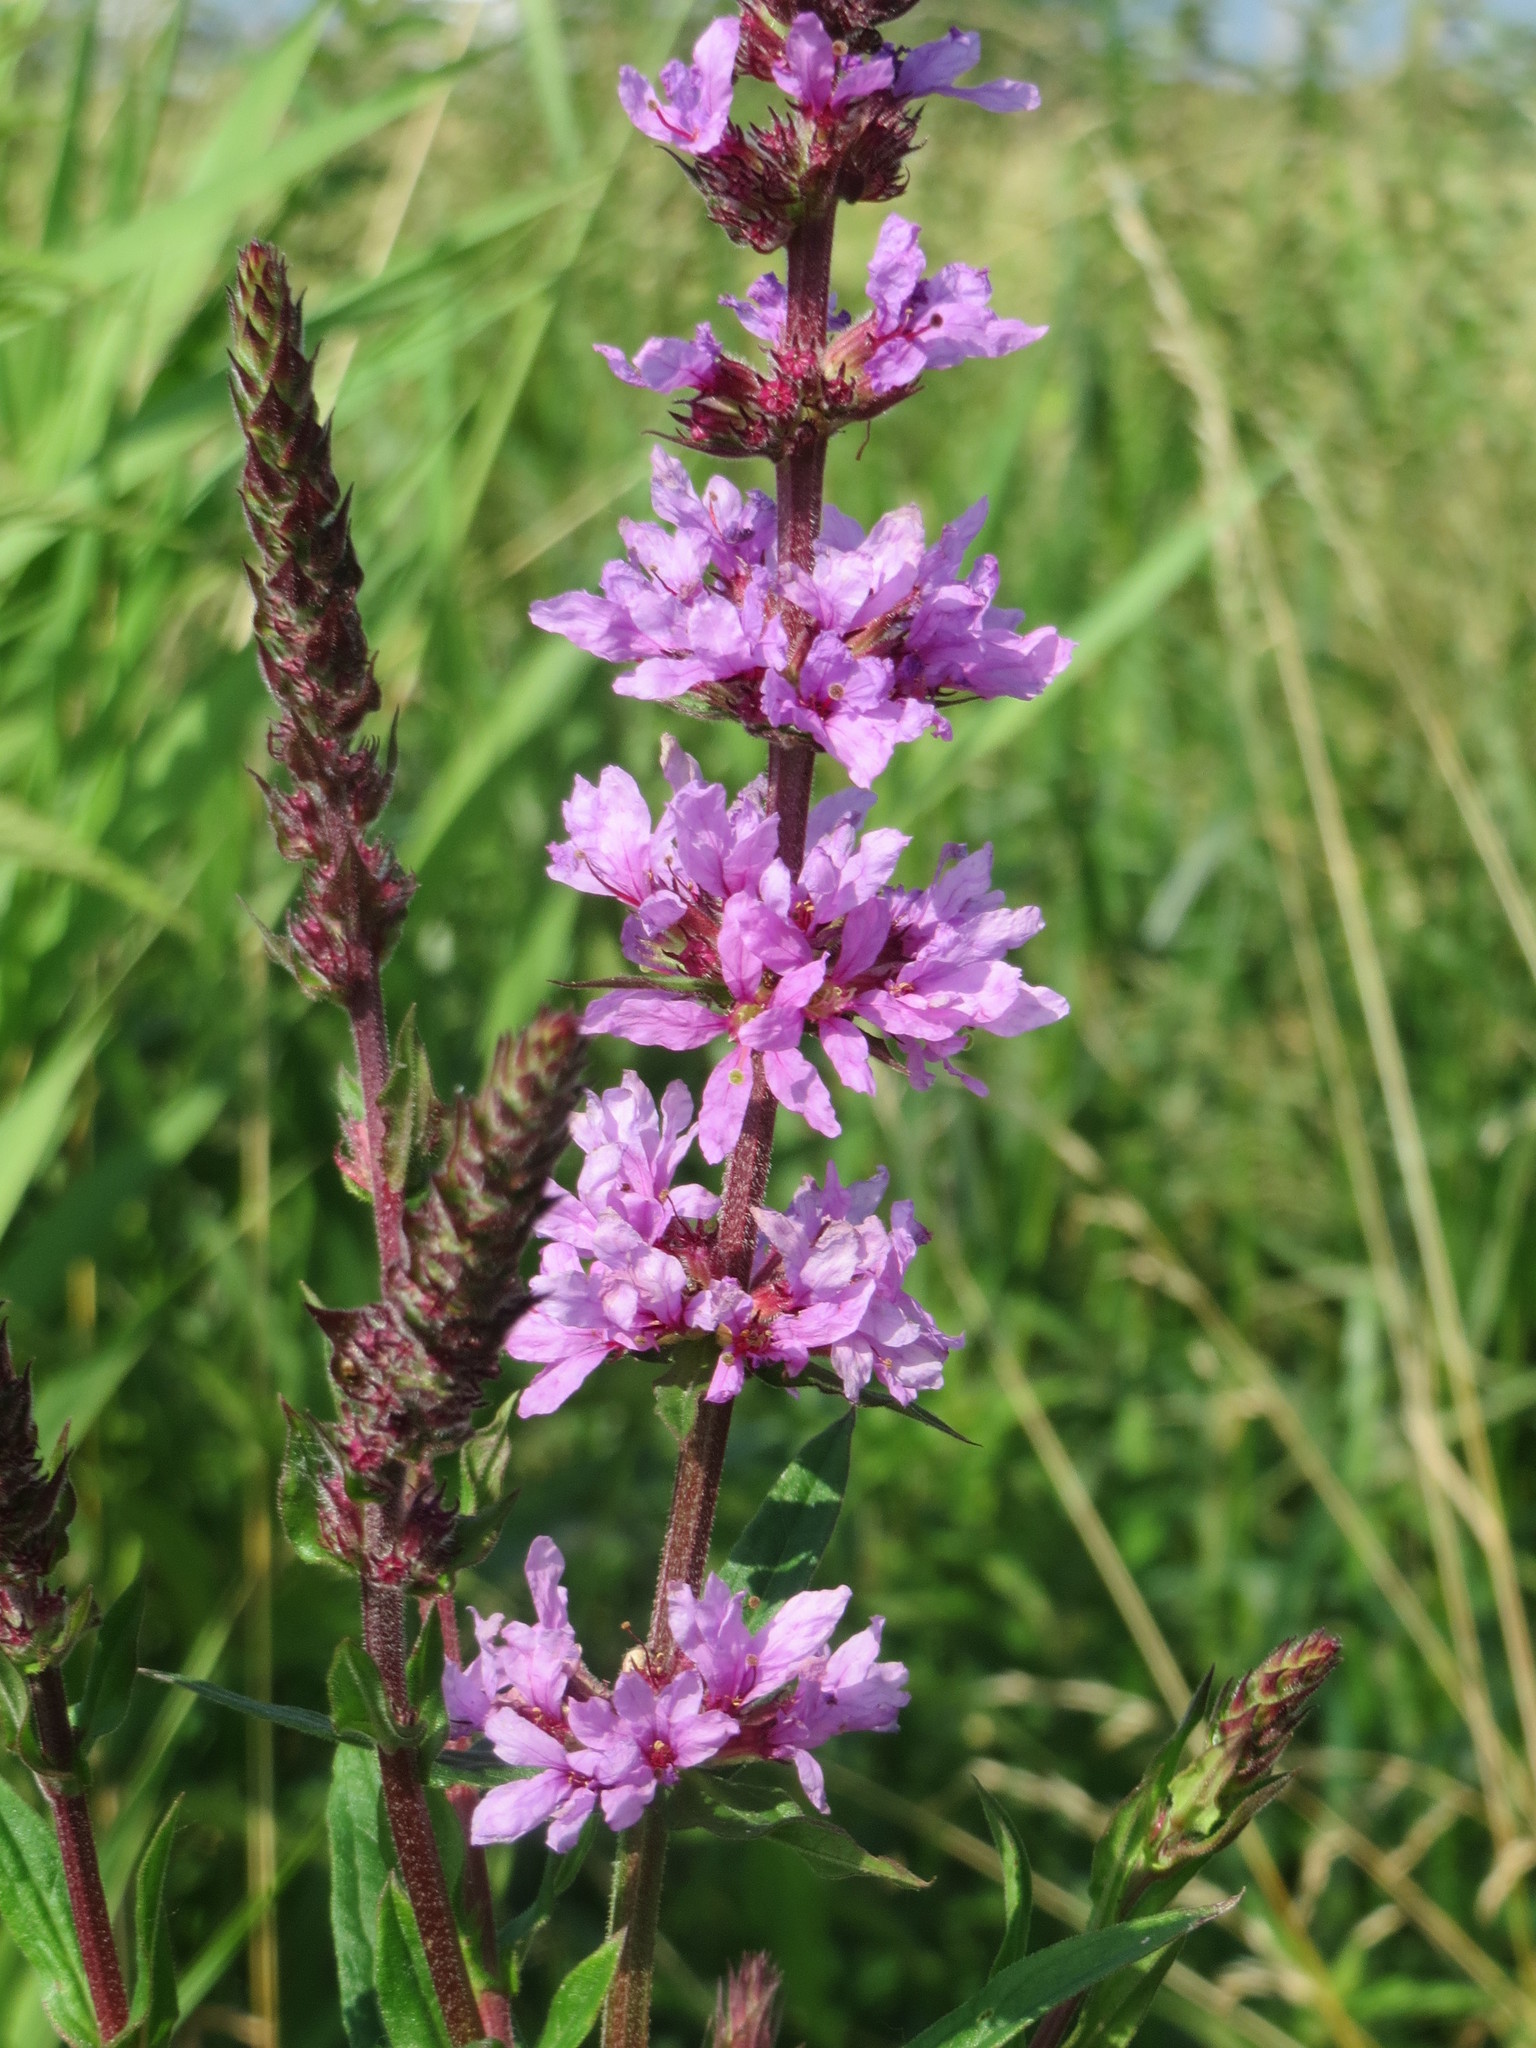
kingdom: Plantae
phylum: Tracheophyta
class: Magnoliopsida
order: Myrtales
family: Lythraceae
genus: Lythrum
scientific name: Lythrum salicaria
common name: Purple loosestrife
